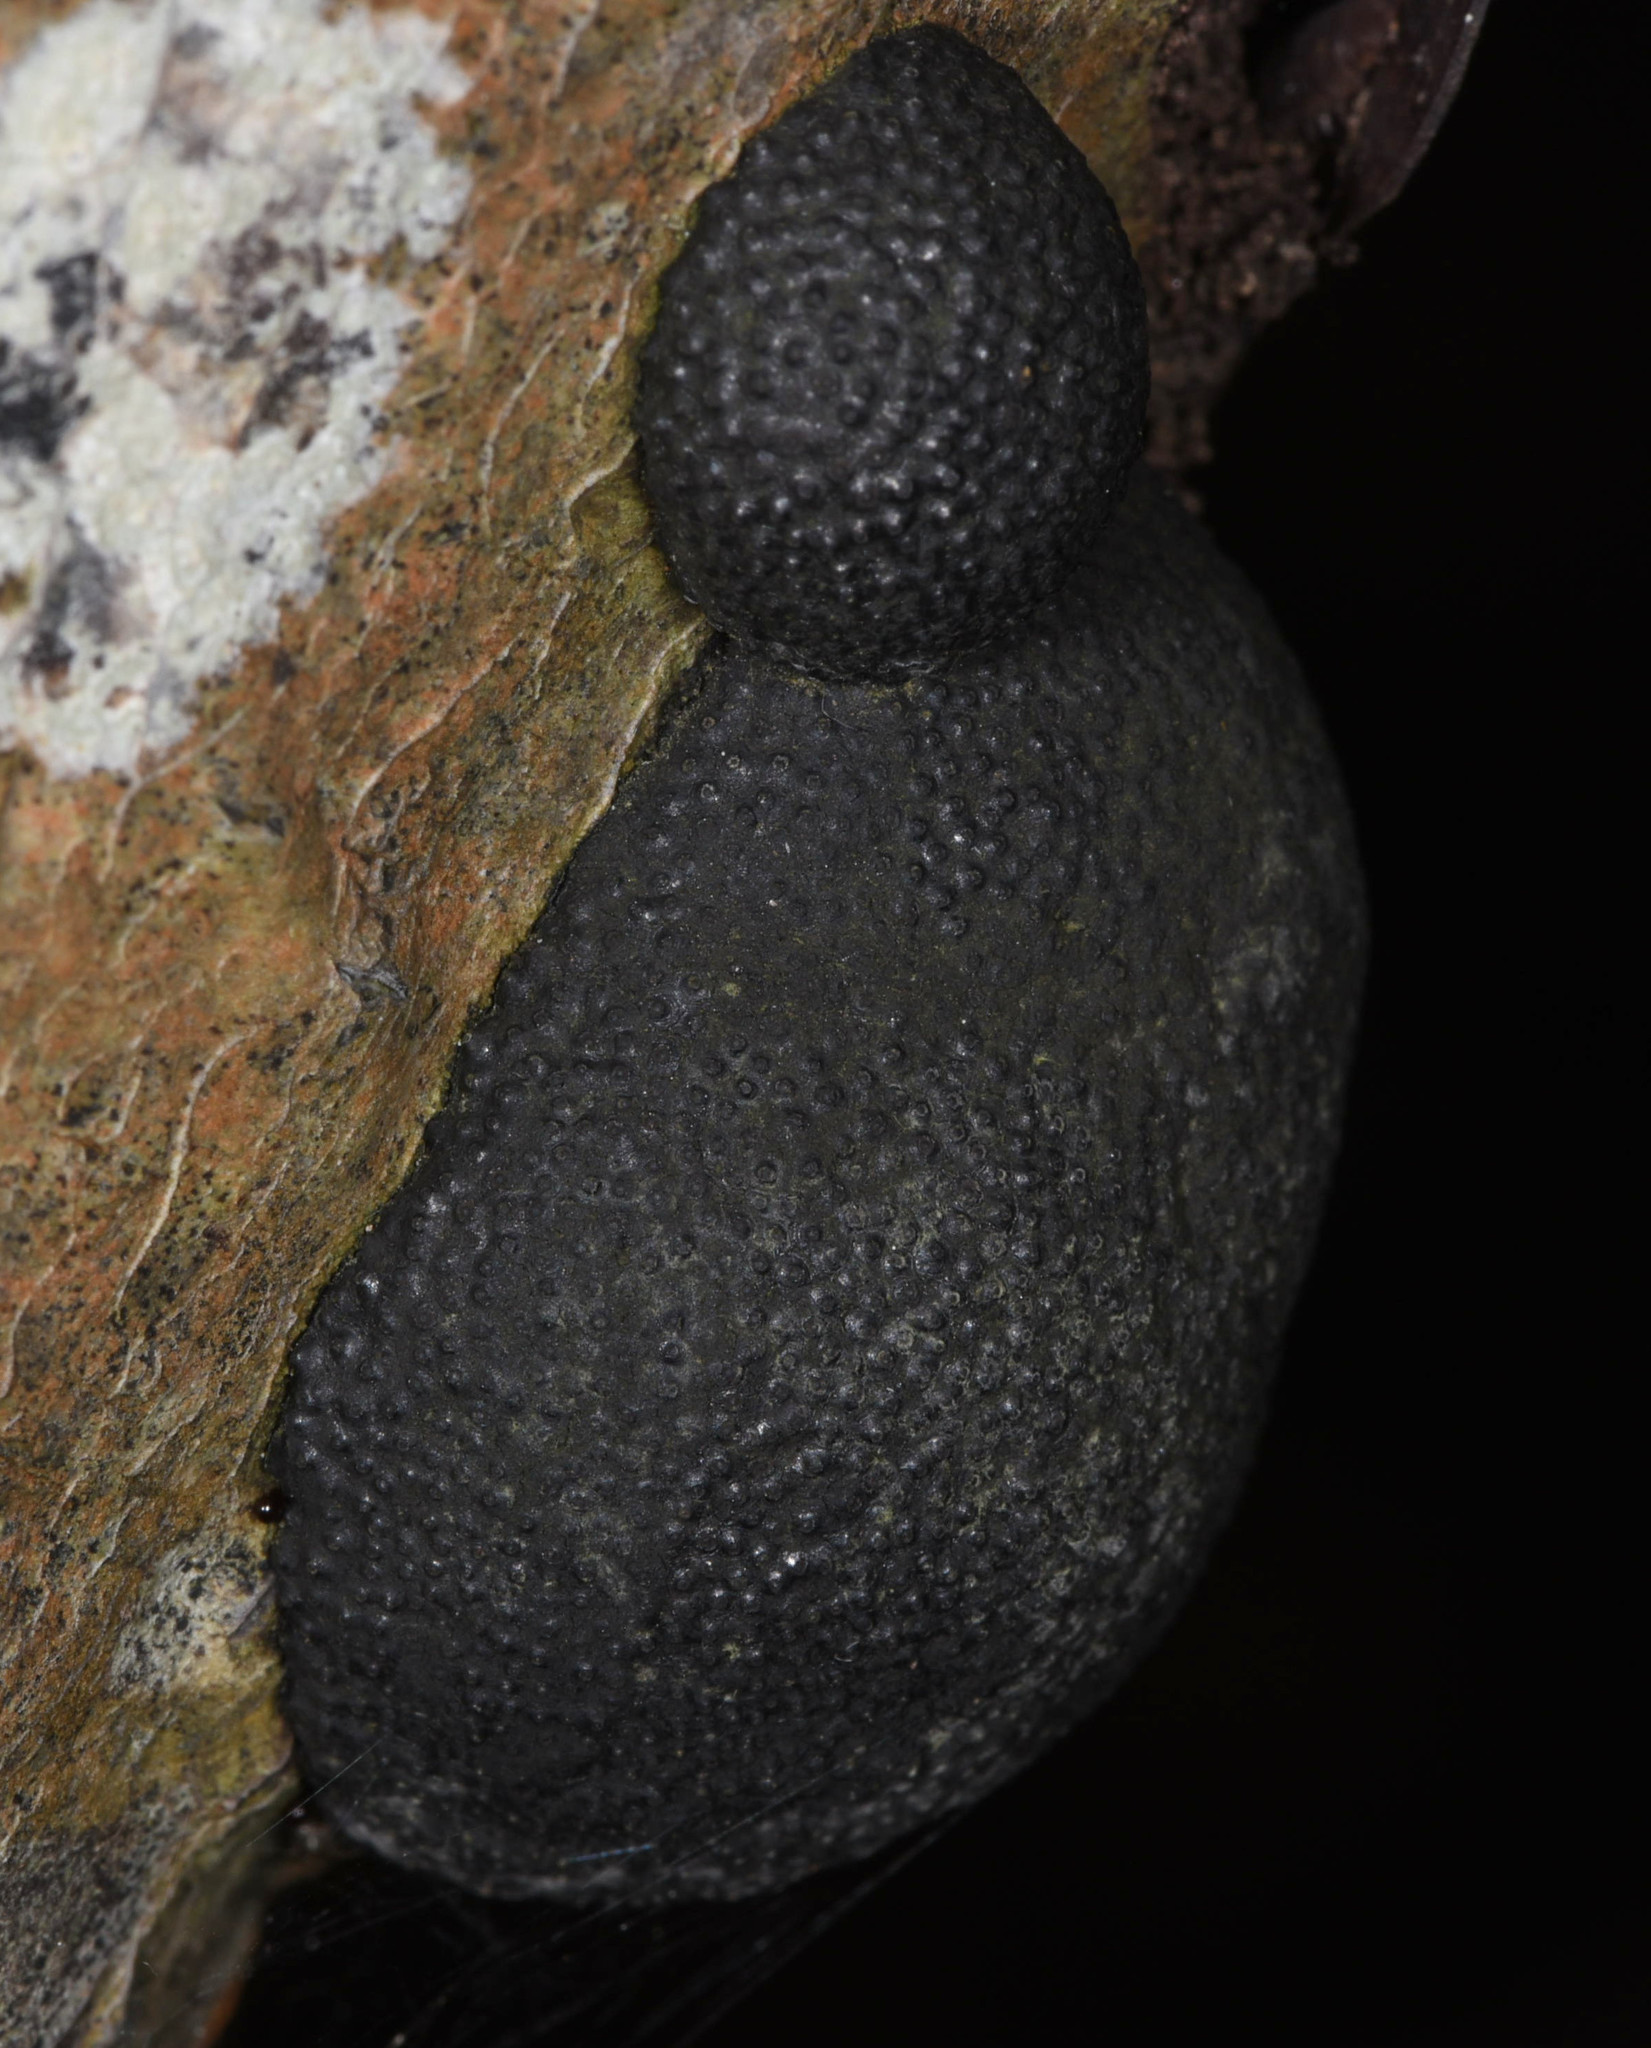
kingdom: Fungi
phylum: Ascomycota
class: Sordariomycetes
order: Xylariales
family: Hypoxylaceae
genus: Annulohypoxylon
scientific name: Annulohypoxylon thouarsianum
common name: Cramp balls
